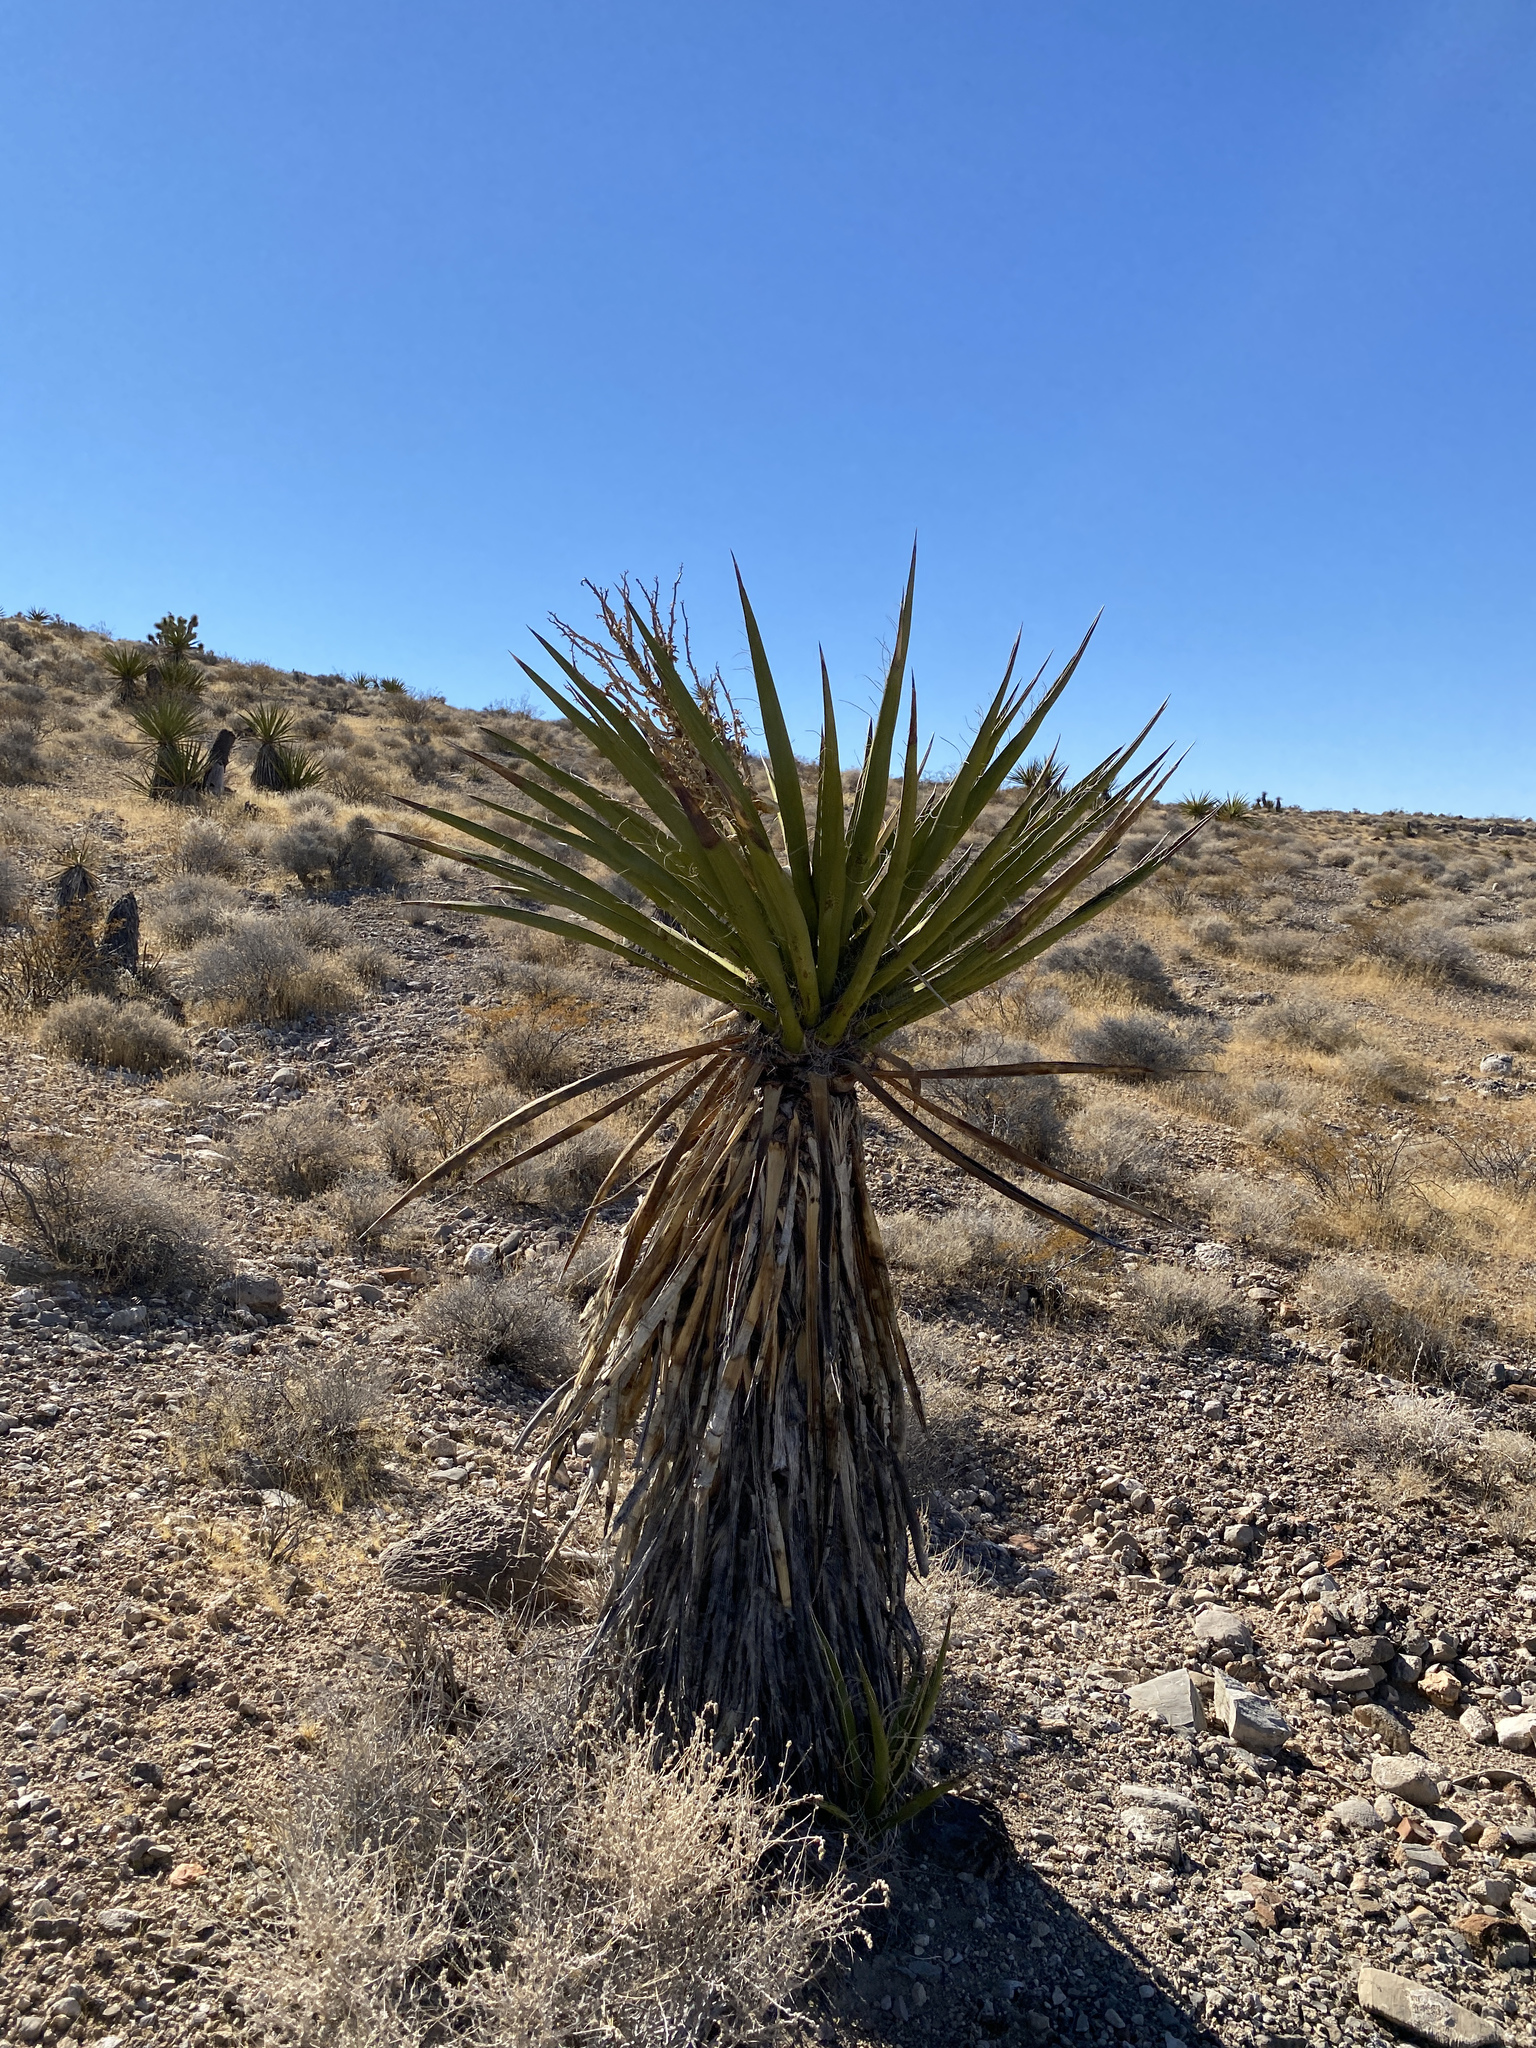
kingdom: Plantae
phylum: Tracheophyta
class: Liliopsida
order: Asparagales
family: Asparagaceae
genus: Yucca
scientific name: Yucca schidigera
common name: Mojave yucca
